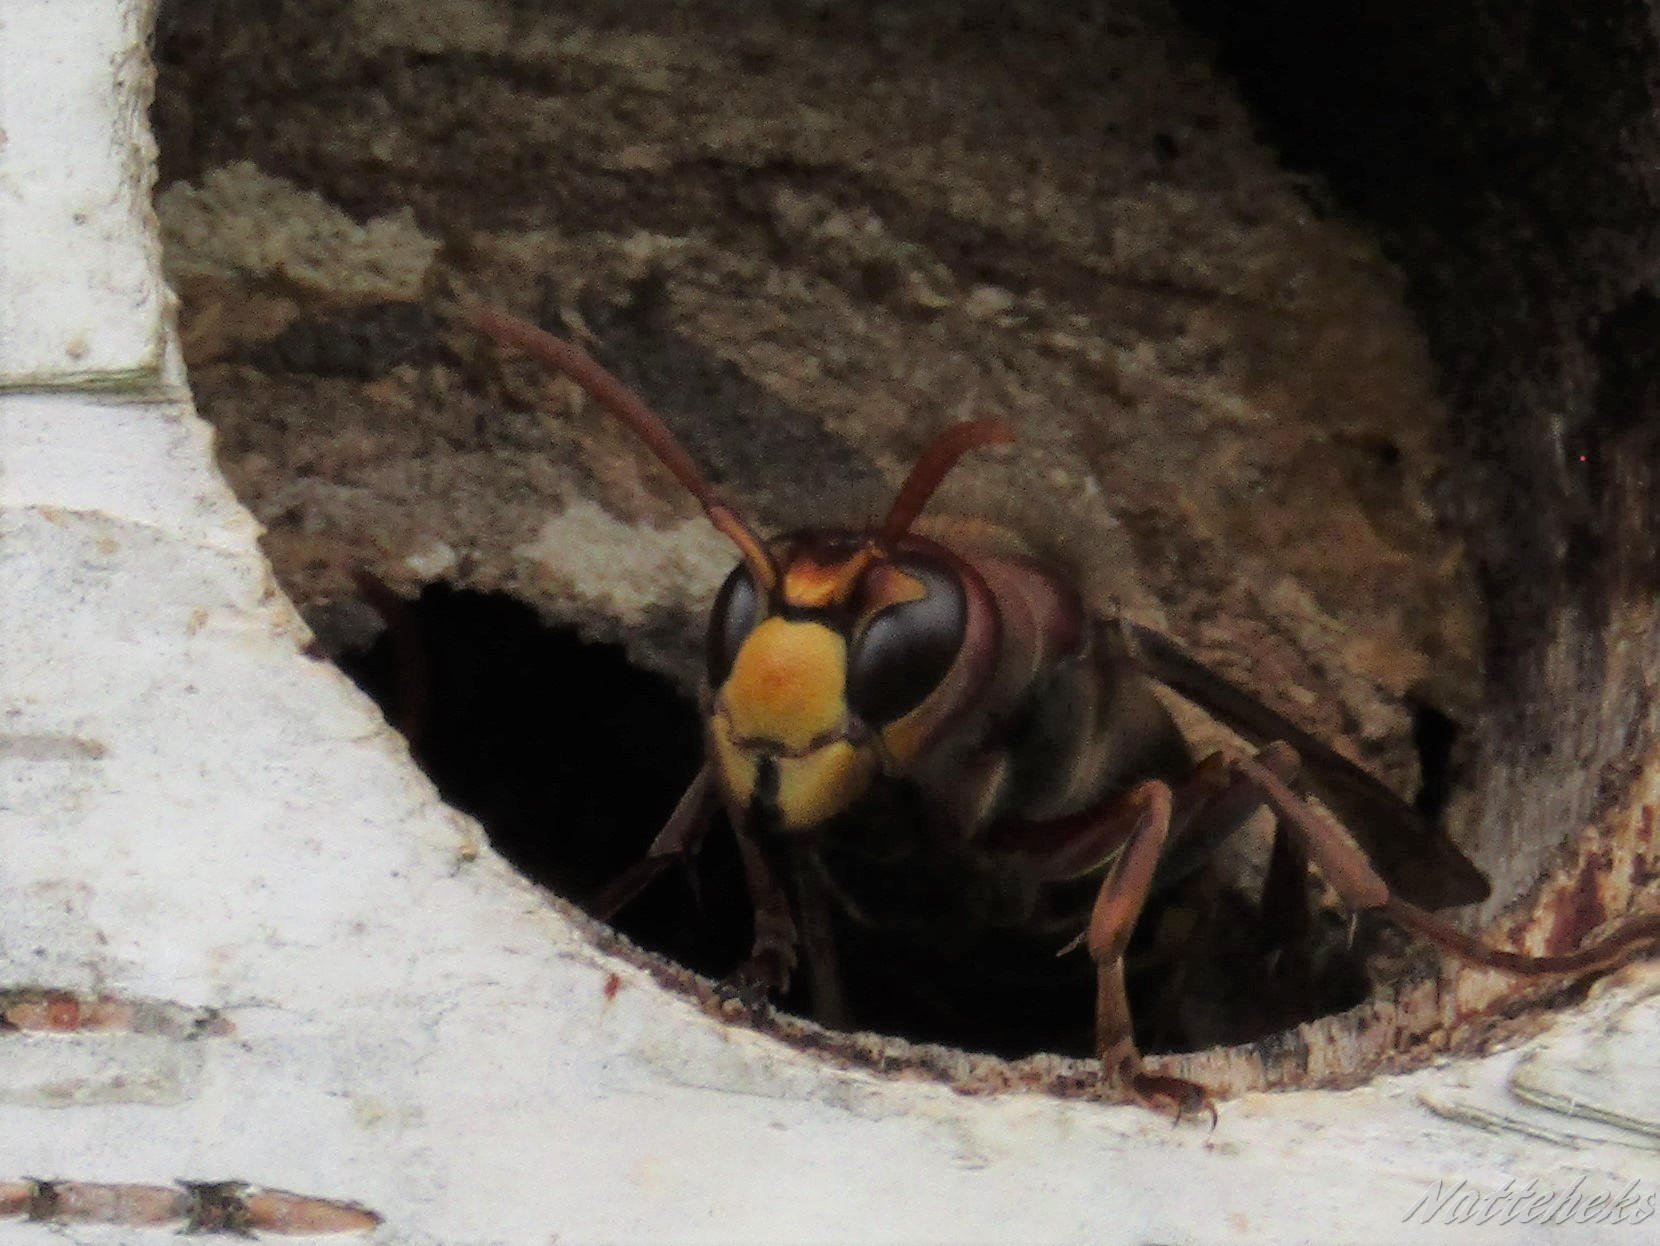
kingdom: Animalia
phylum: Arthropoda
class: Insecta
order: Hymenoptera
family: Vespidae
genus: Vespa
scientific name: Vespa crabro
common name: Hornet
